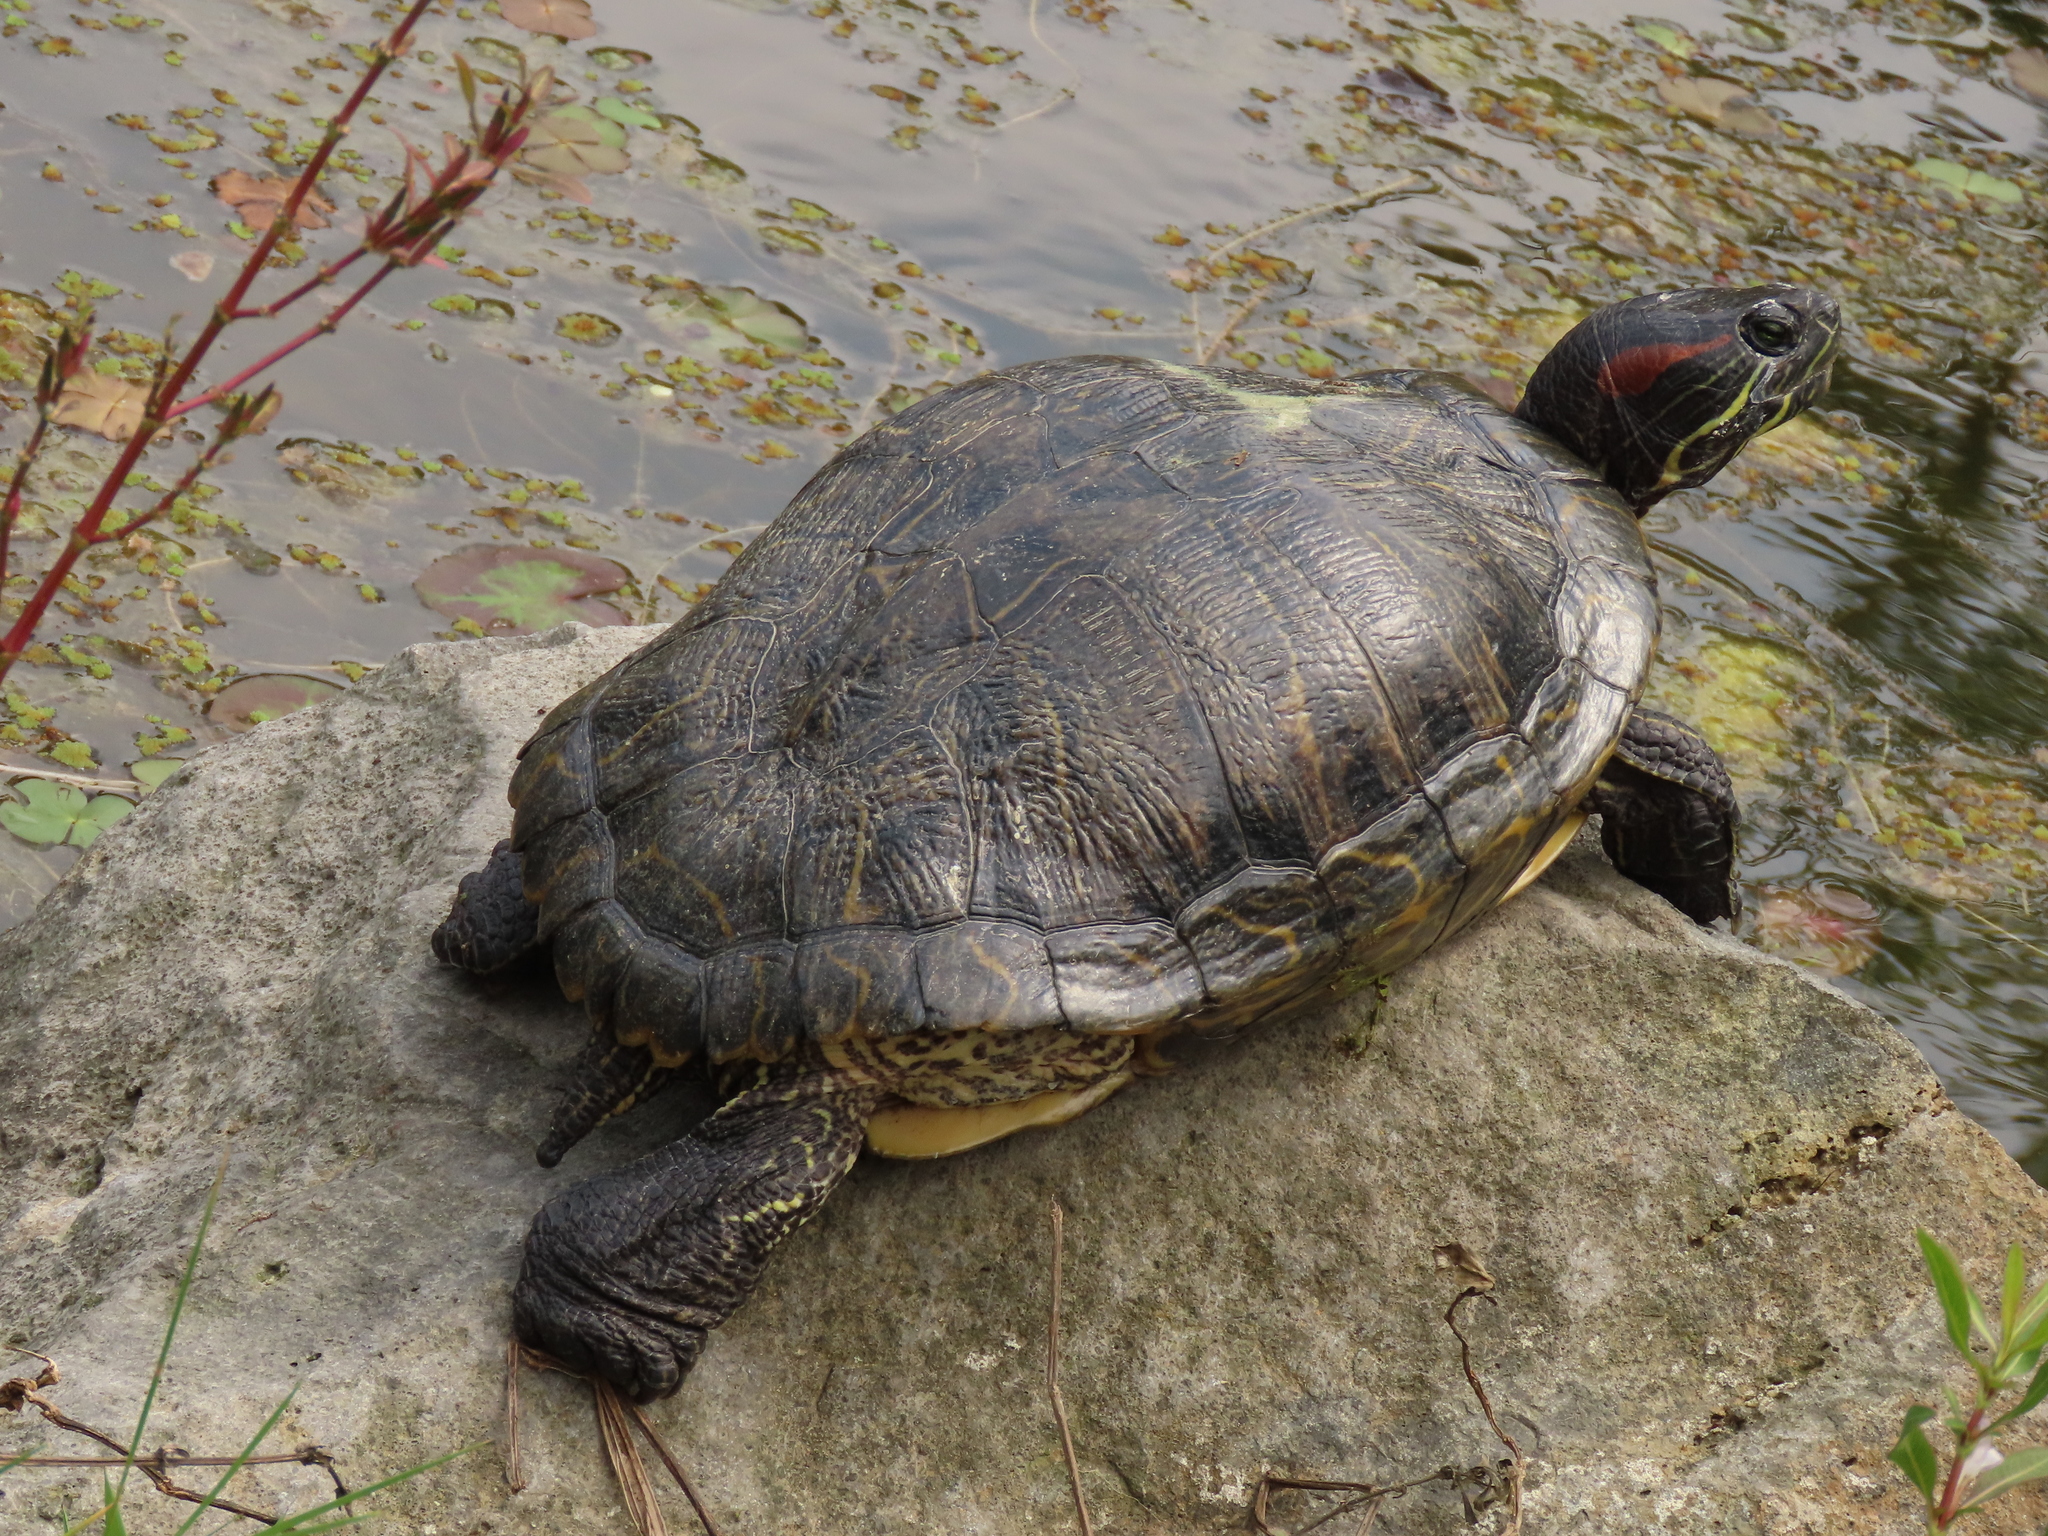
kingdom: Animalia
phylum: Chordata
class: Testudines
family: Emydidae
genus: Trachemys
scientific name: Trachemys scripta
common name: Slider
